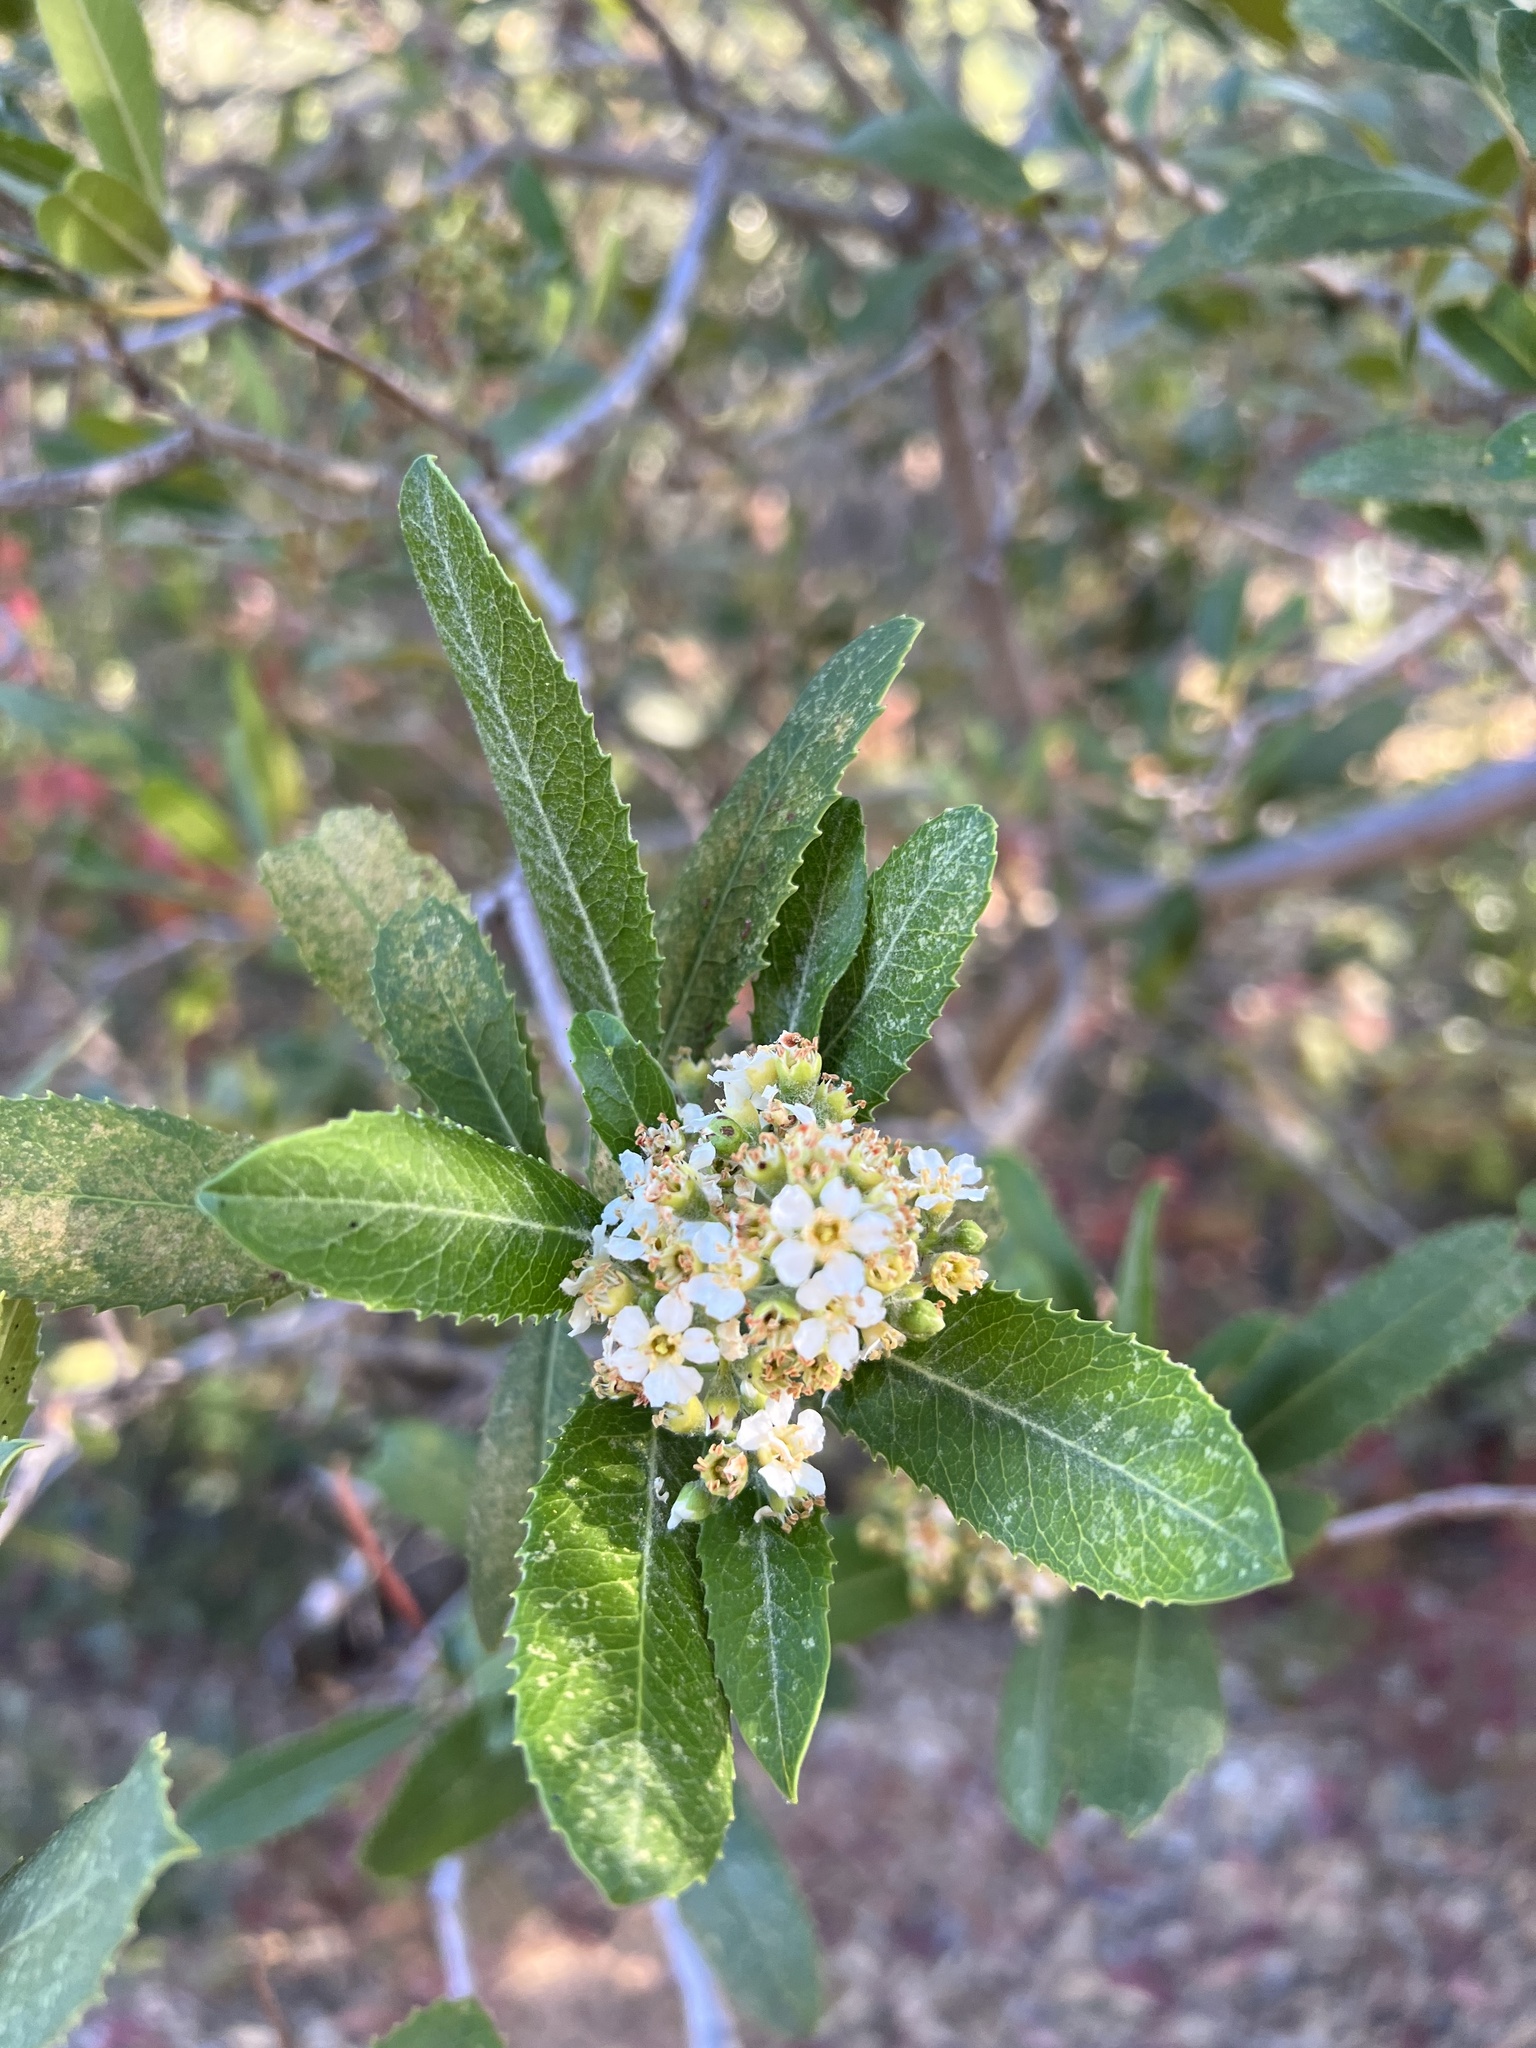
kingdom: Plantae
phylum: Tracheophyta
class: Magnoliopsida
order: Rosales
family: Rosaceae
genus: Heteromeles
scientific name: Heteromeles arbutifolia
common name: California-holly
